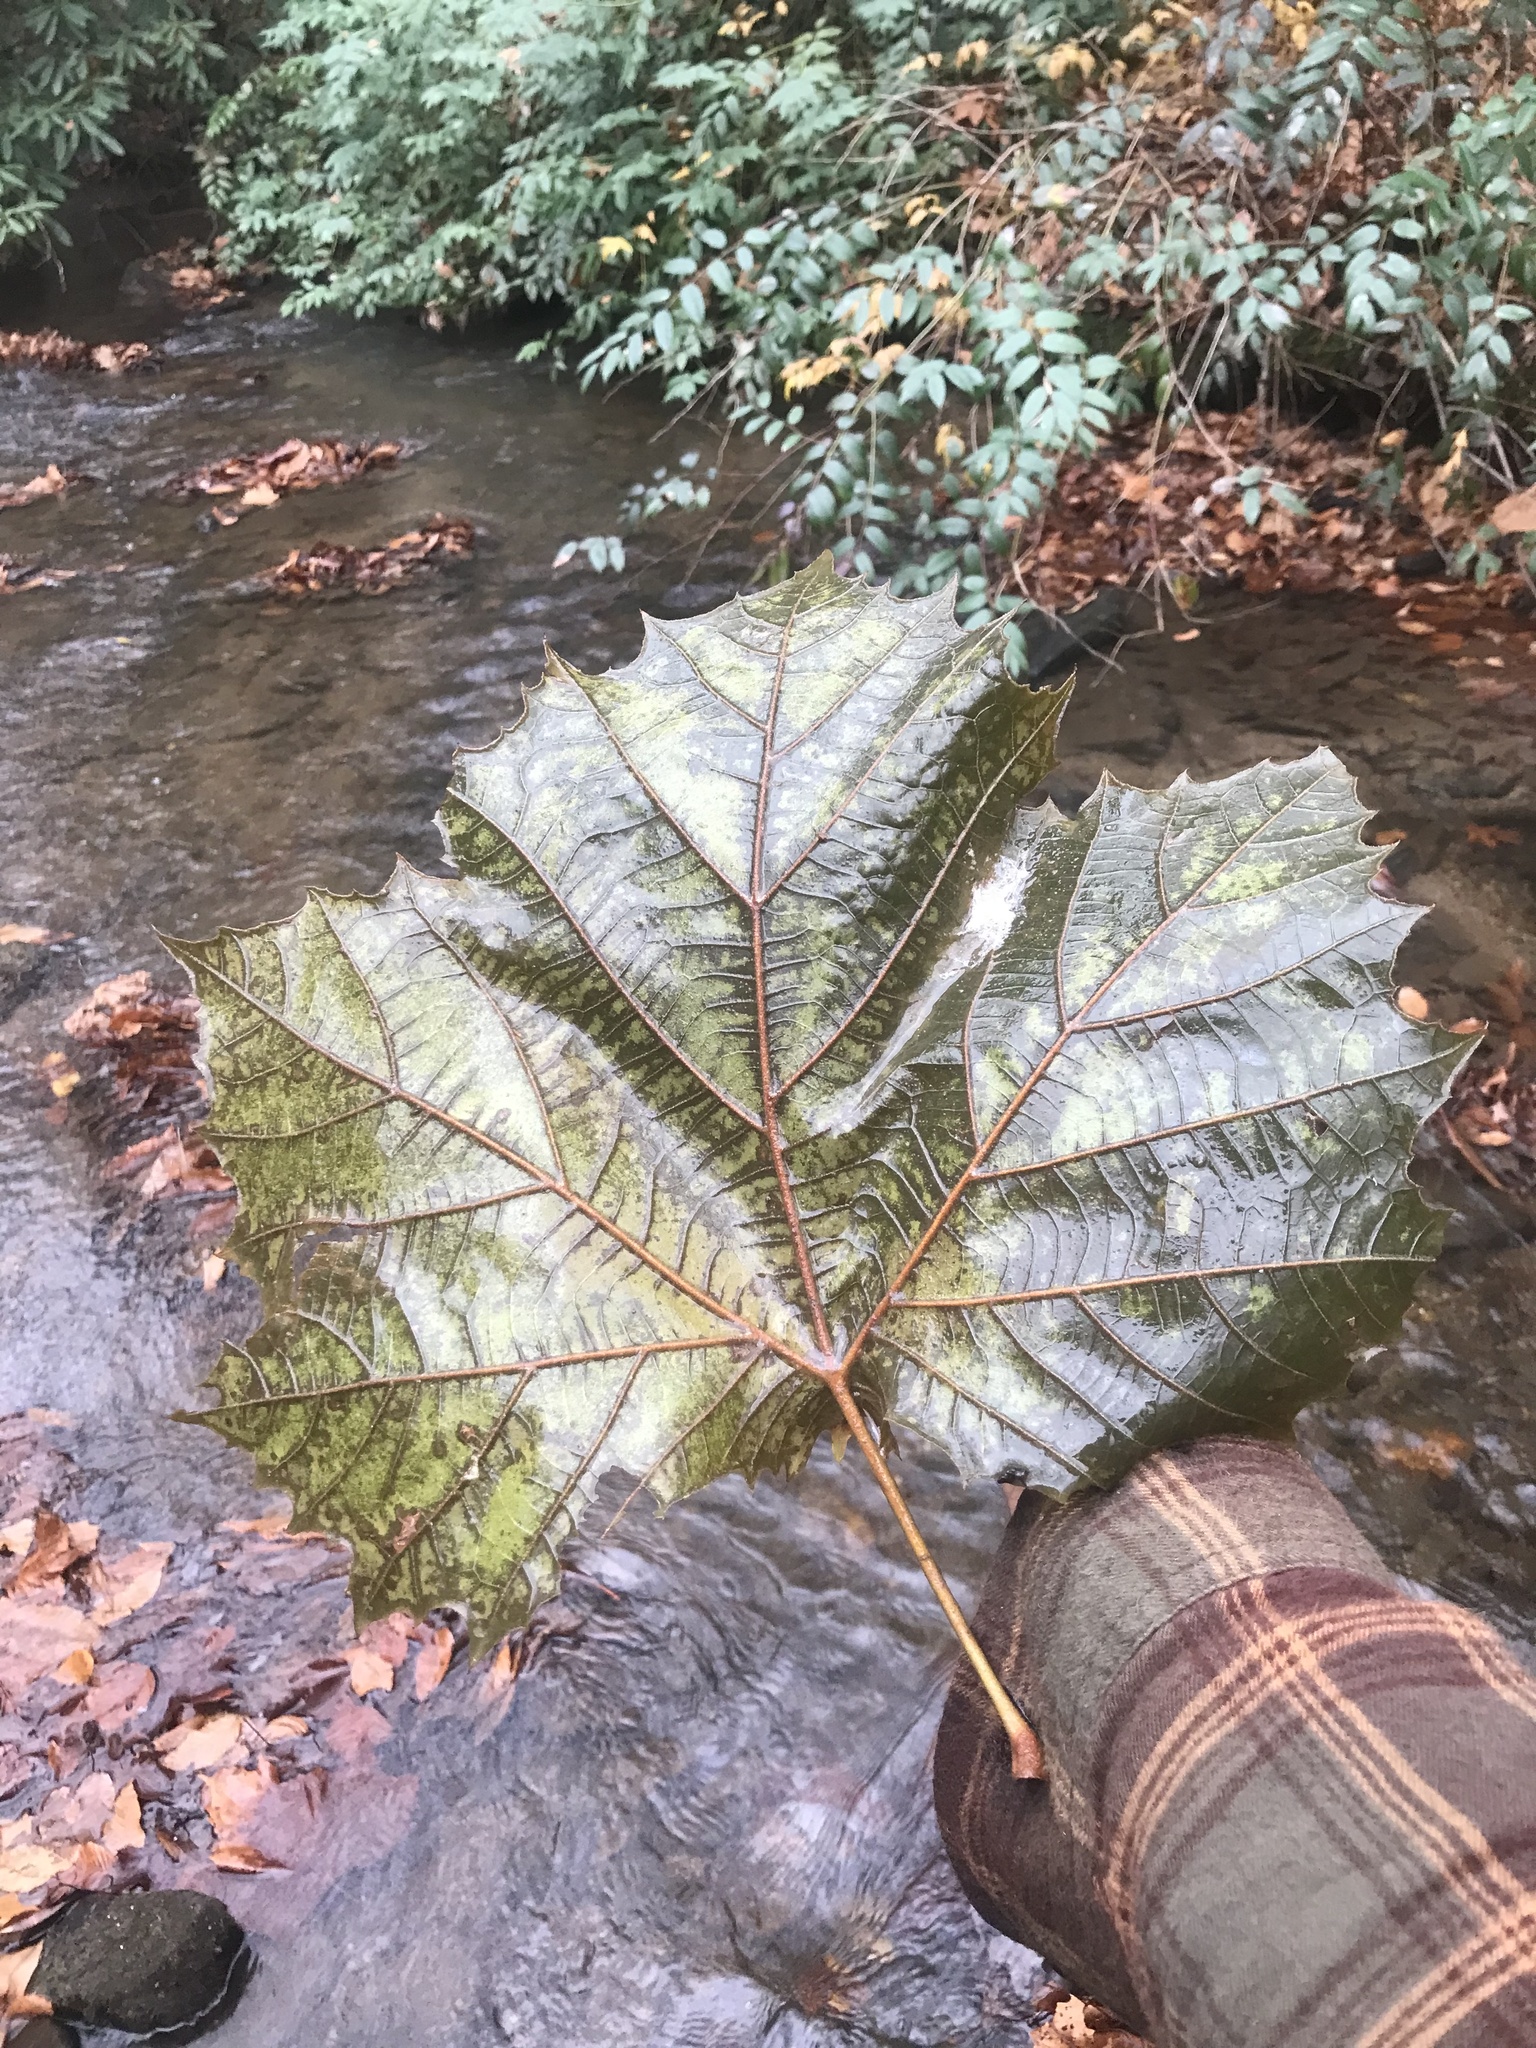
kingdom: Plantae
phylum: Tracheophyta
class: Magnoliopsida
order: Proteales
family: Platanaceae
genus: Platanus
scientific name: Platanus occidentalis
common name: American sycamore
